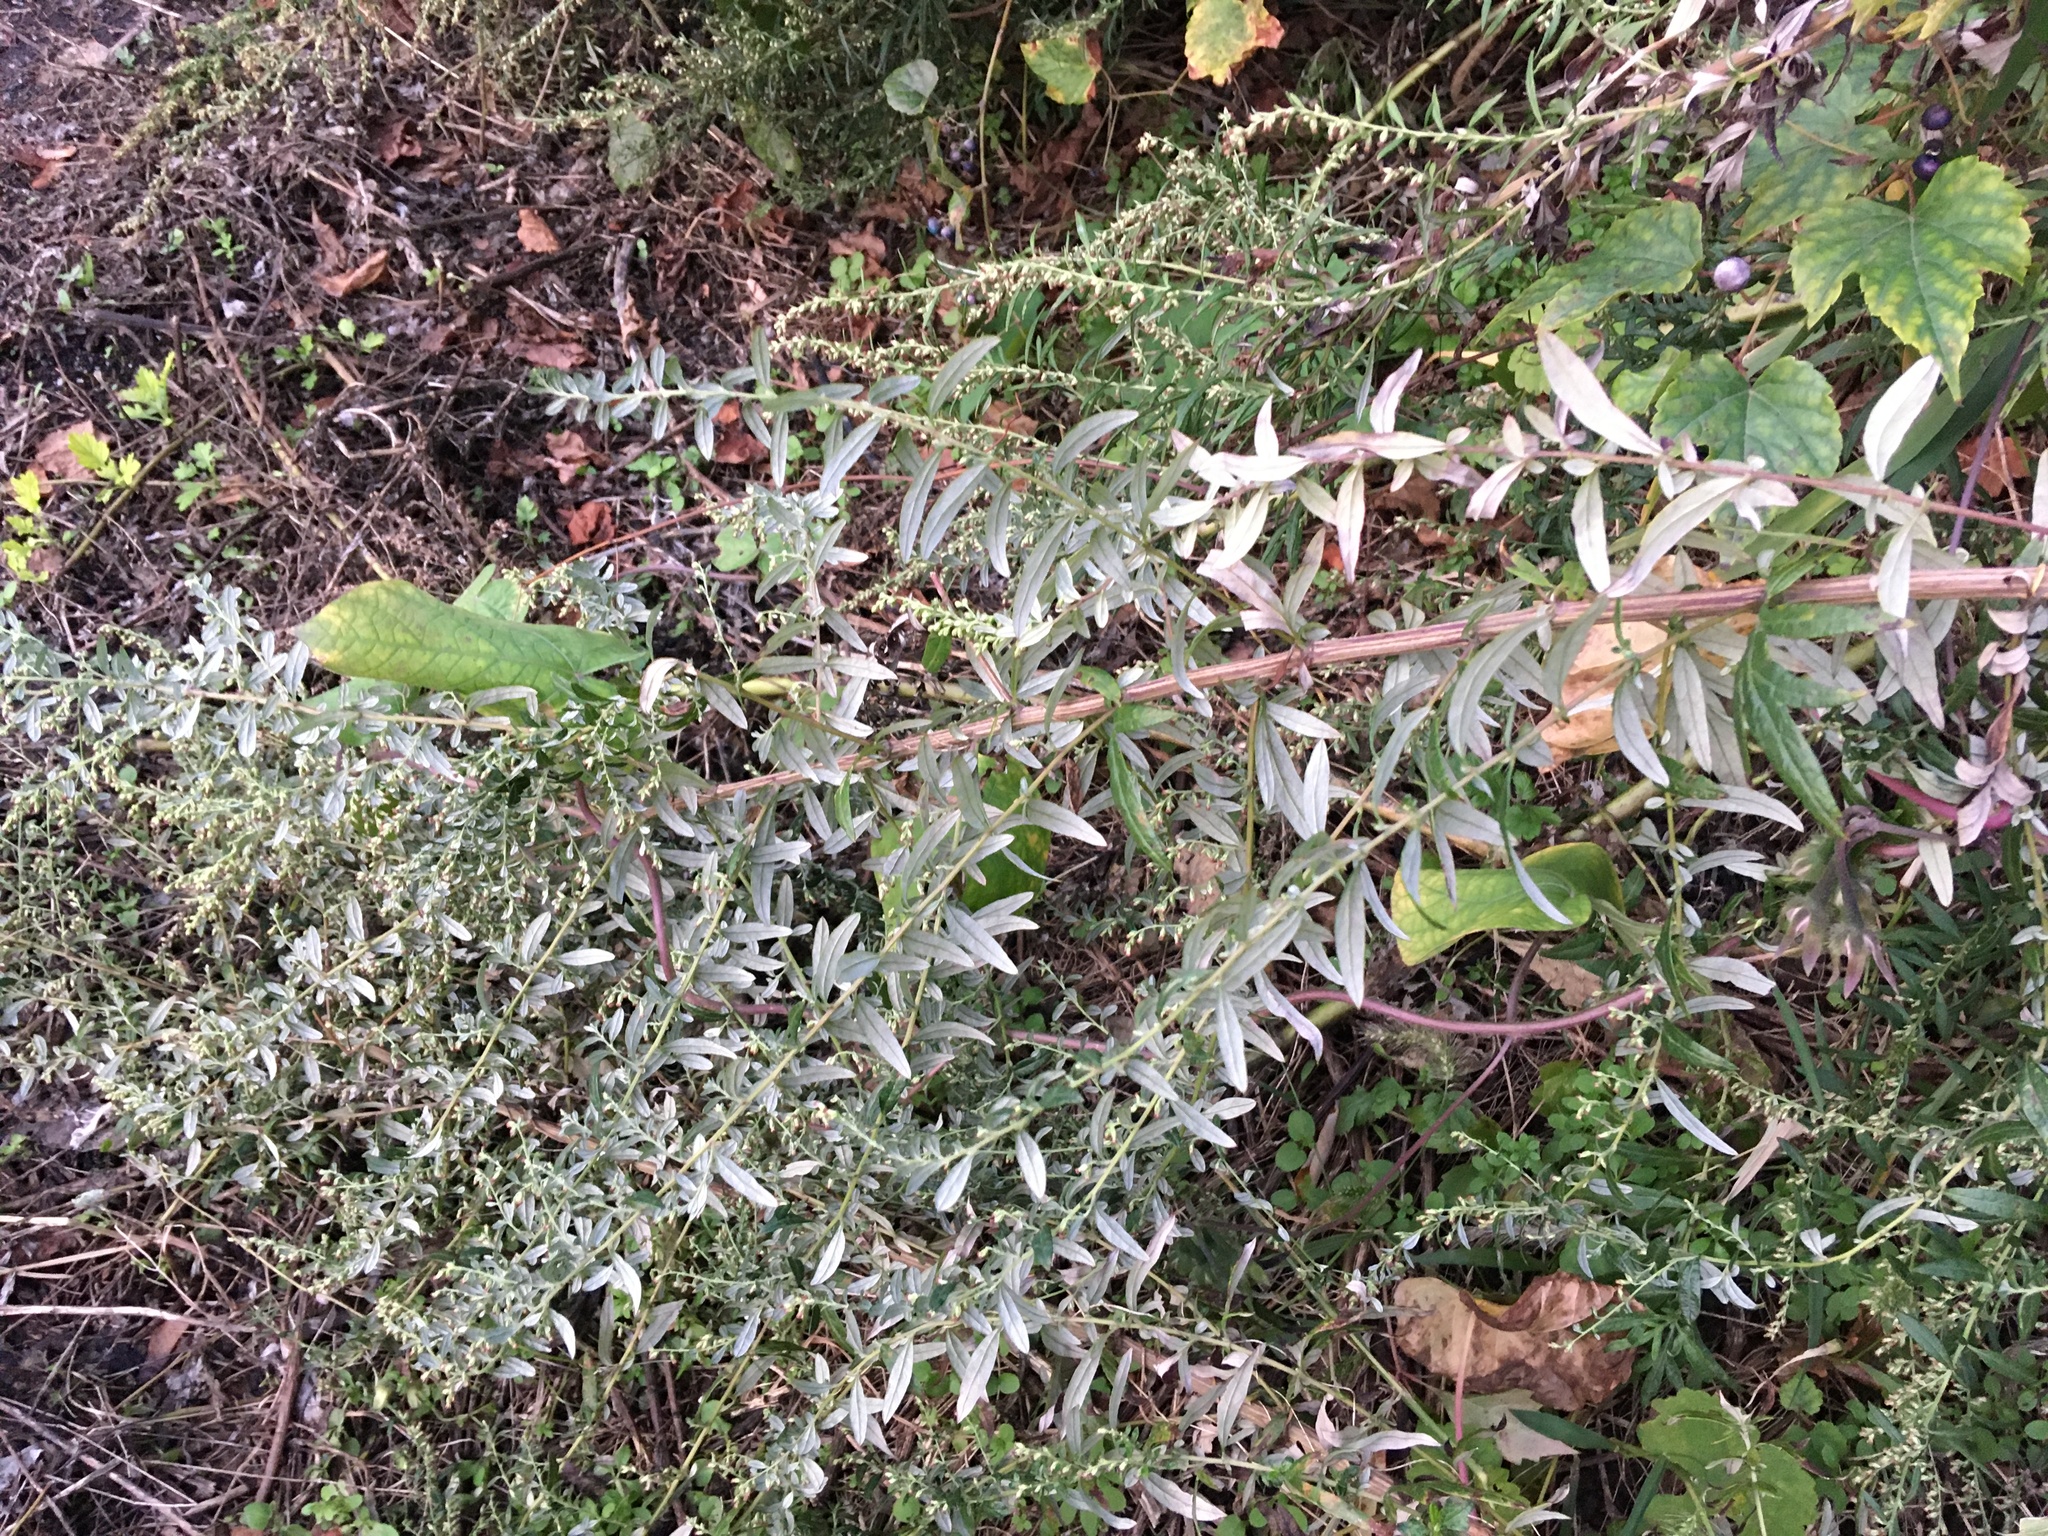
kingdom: Plantae
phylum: Tracheophyta
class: Magnoliopsida
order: Asterales
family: Asteraceae
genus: Artemisia
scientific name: Artemisia vulgaris
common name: Mugwort
